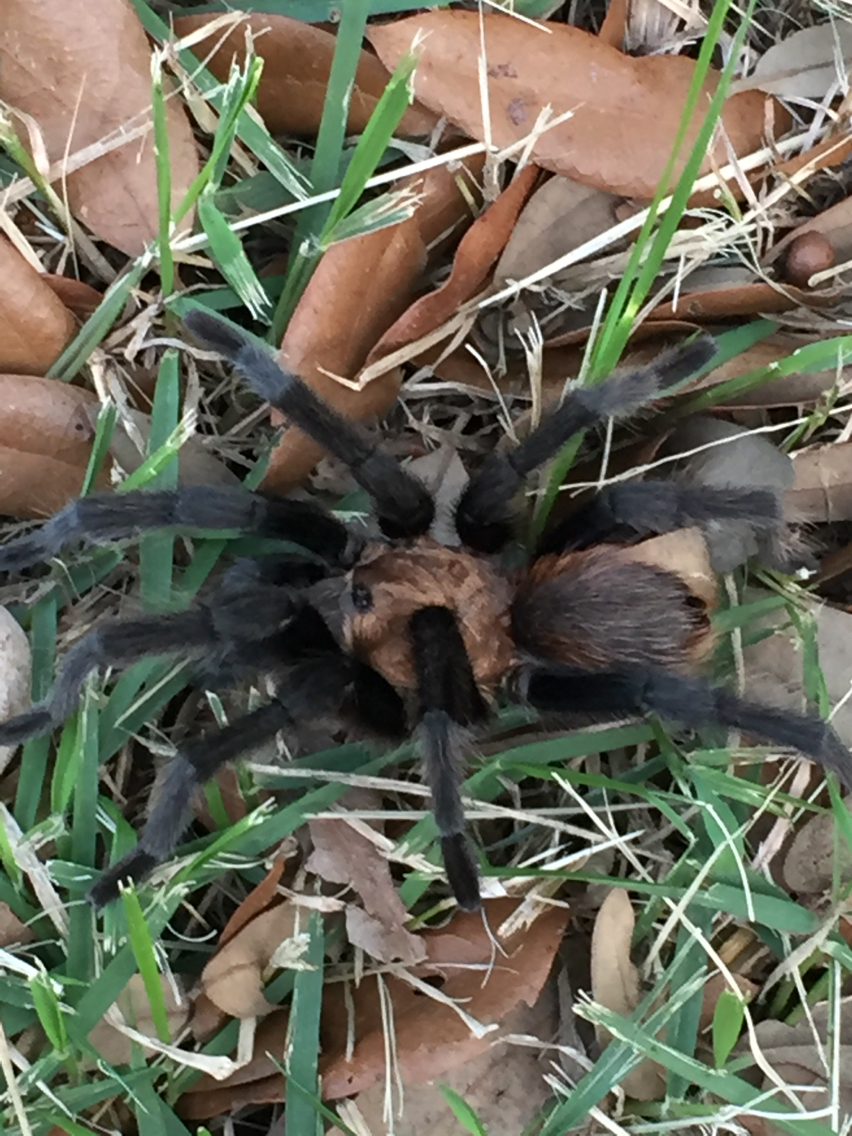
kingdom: Animalia
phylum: Arthropoda
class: Arachnida
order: Araneae
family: Theraphosidae
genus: Aphonopelma
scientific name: Aphonopelma hentzi
